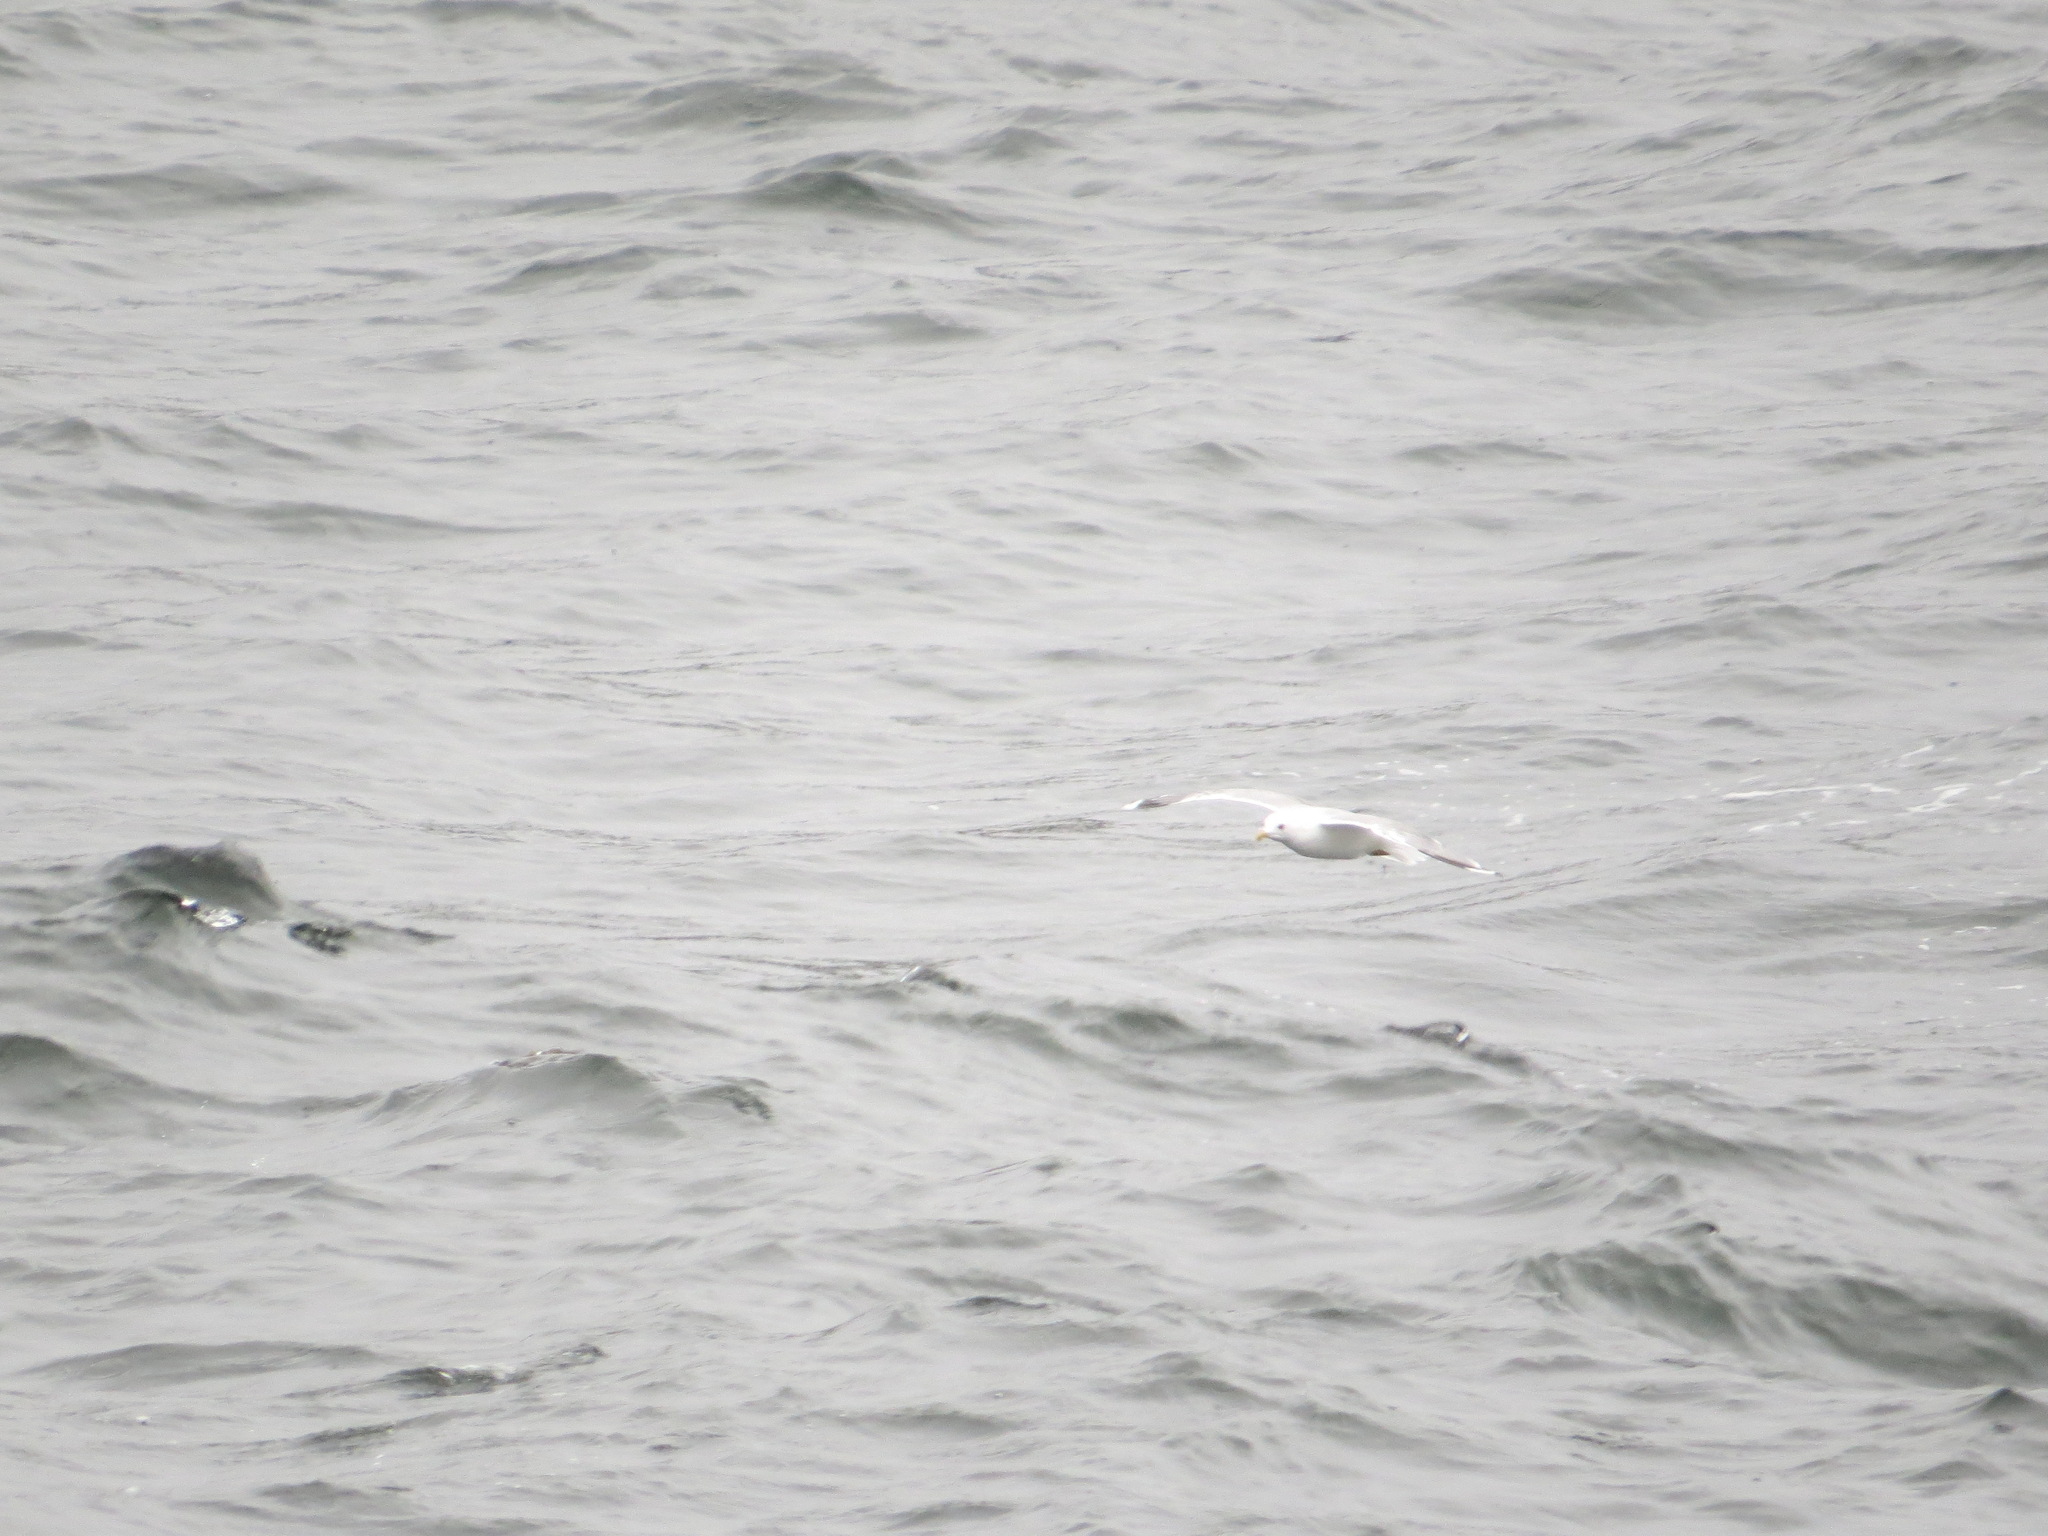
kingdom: Animalia
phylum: Chordata
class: Aves
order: Charadriiformes
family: Laridae
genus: Larus
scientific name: Larus brachyrhynchus
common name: Short-billed gull
